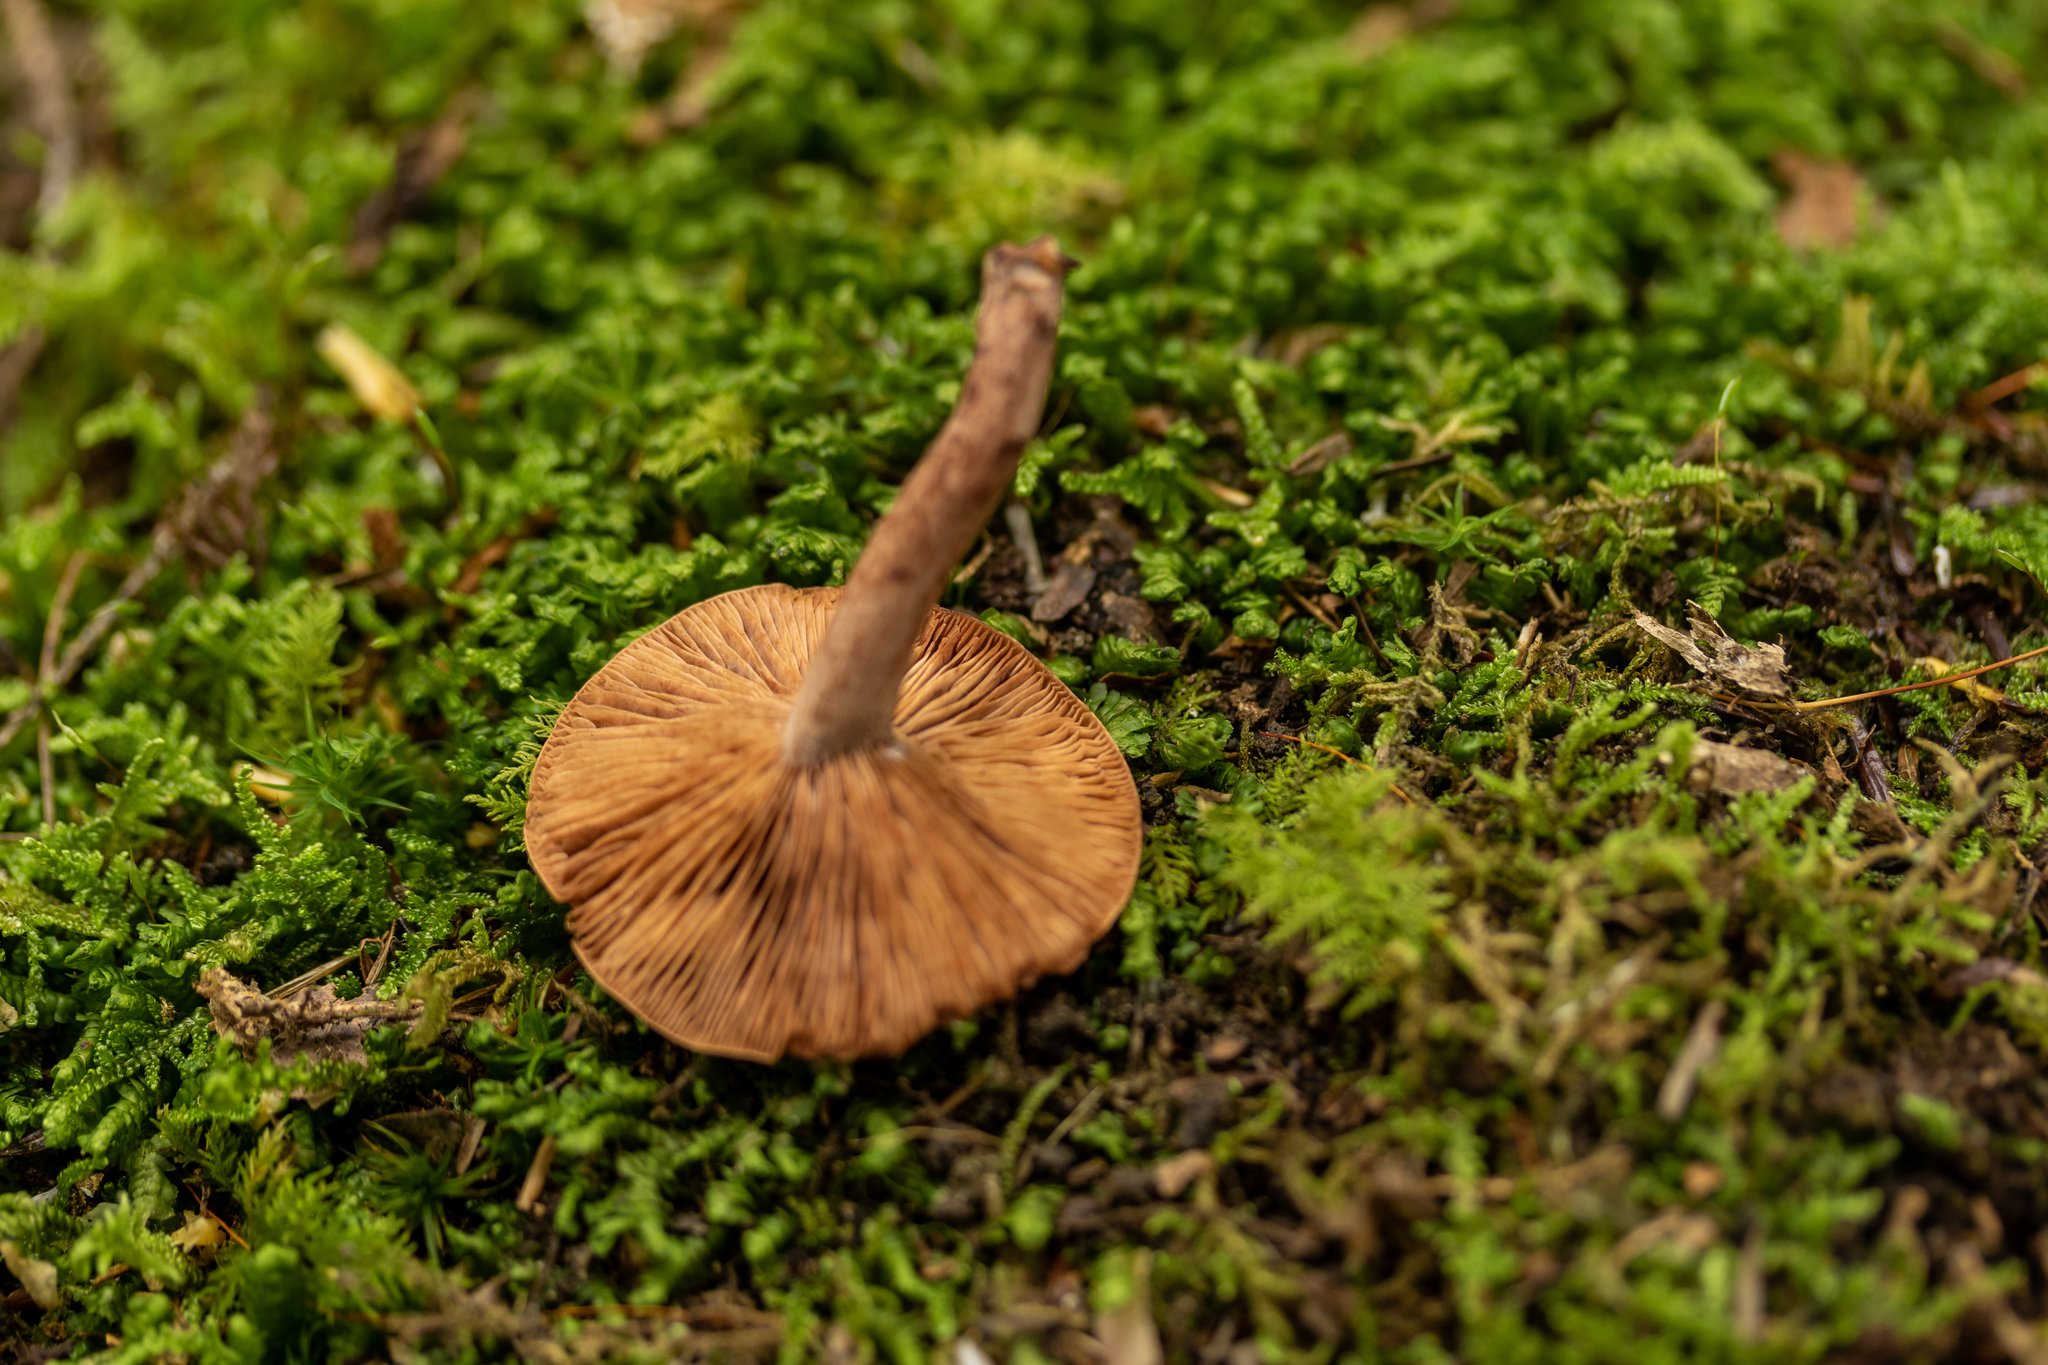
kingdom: Fungi
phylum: Basidiomycota
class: Agaricomycetes
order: Russulales
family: Russulaceae
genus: Lactarius
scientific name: Lactarius camphoratus
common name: Curry milkcap
